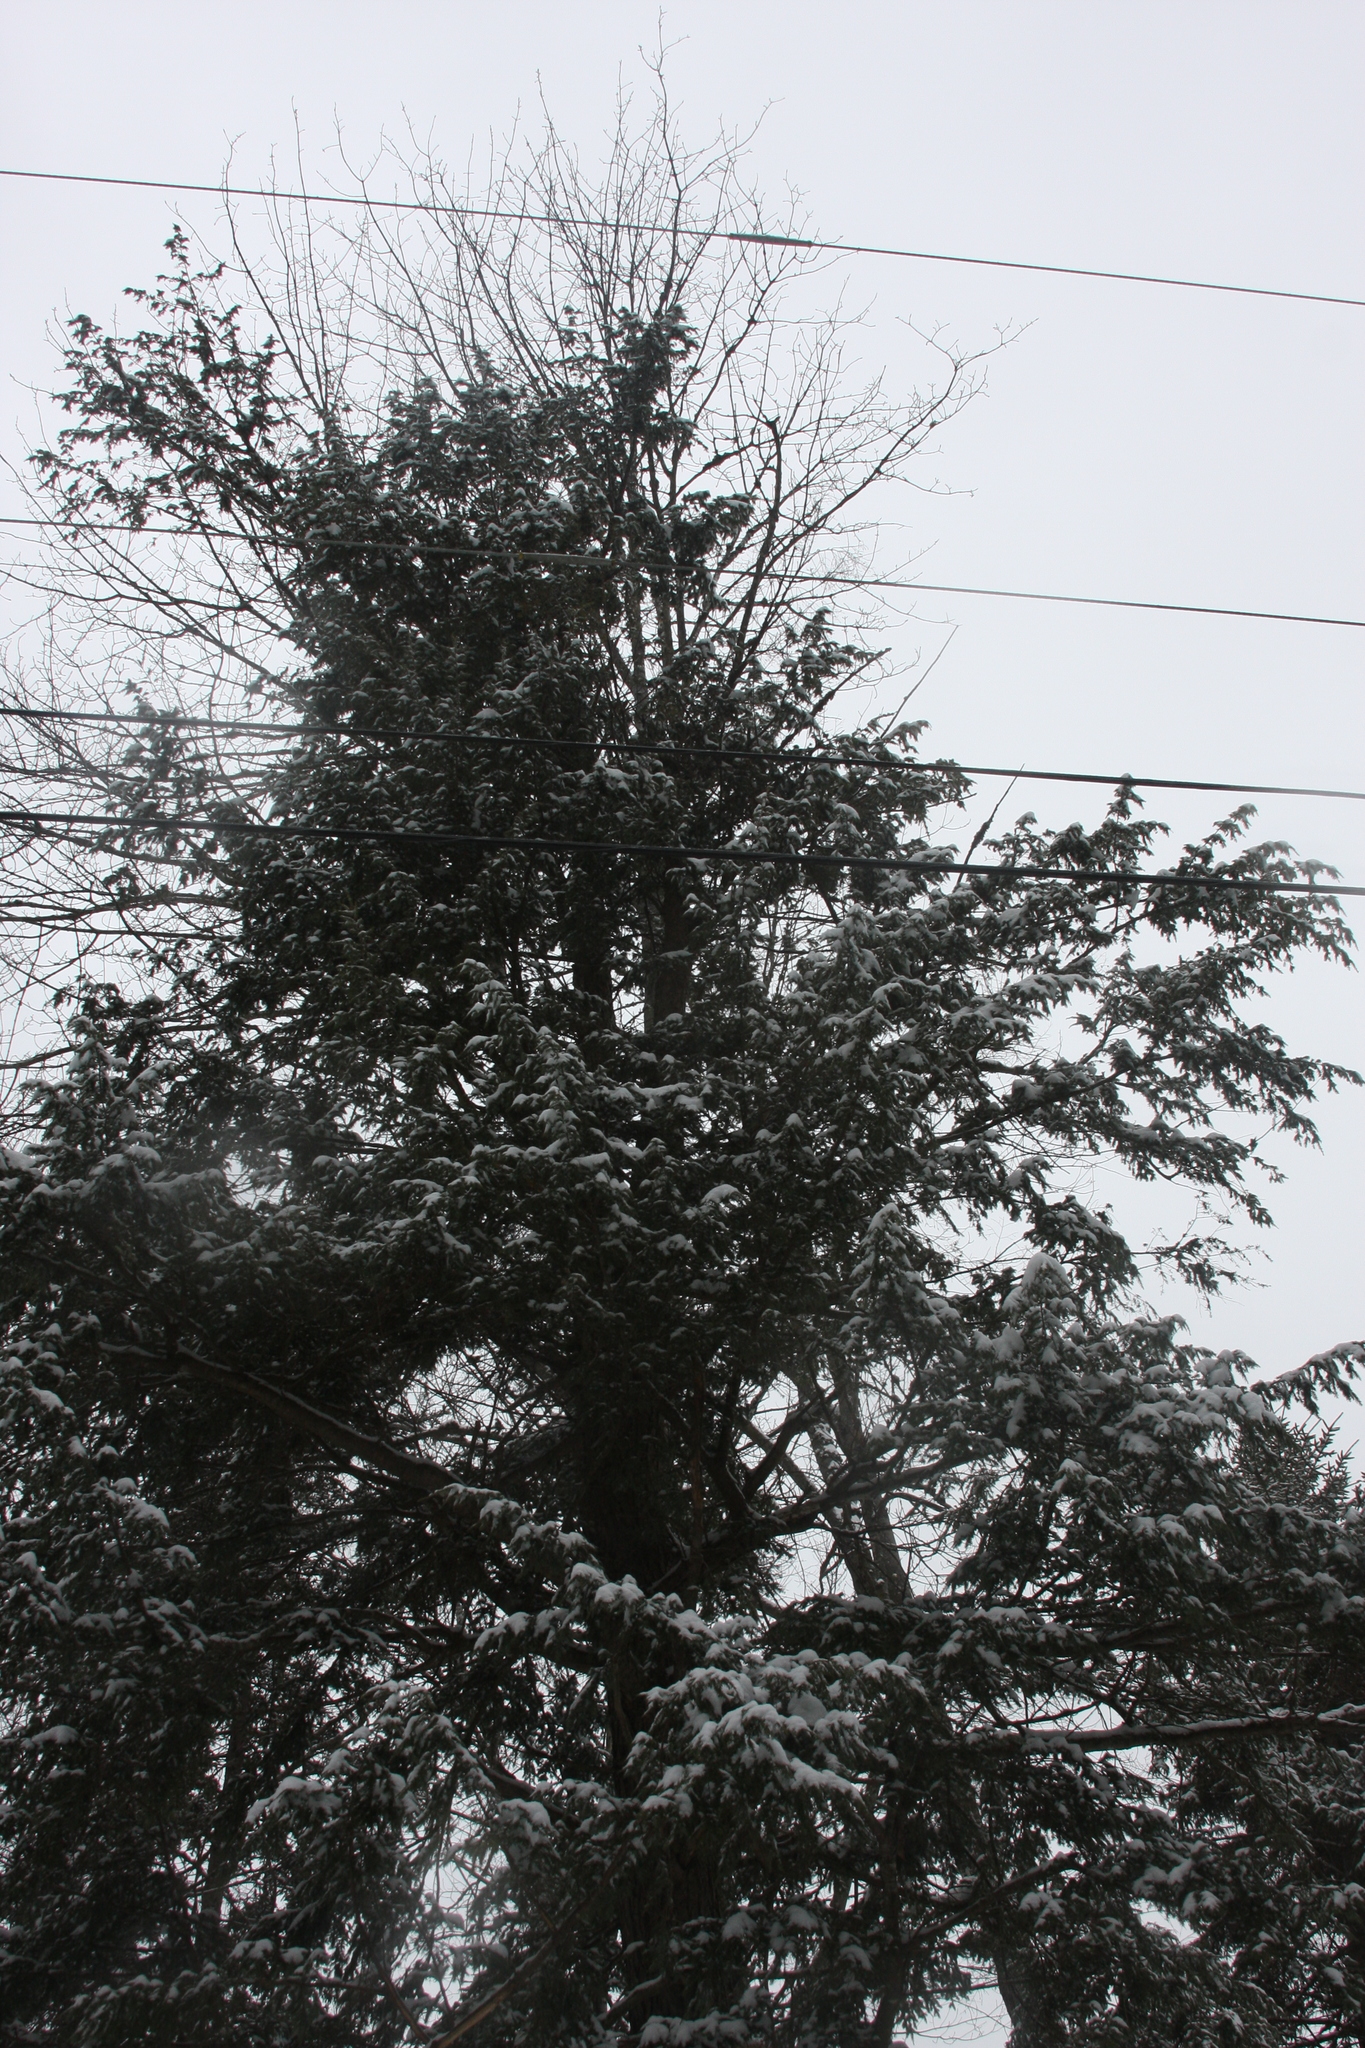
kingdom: Plantae
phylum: Tracheophyta
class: Pinopsida
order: Pinales
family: Pinaceae
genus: Tsuga
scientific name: Tsuga canadensis
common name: Eastern hemlock
